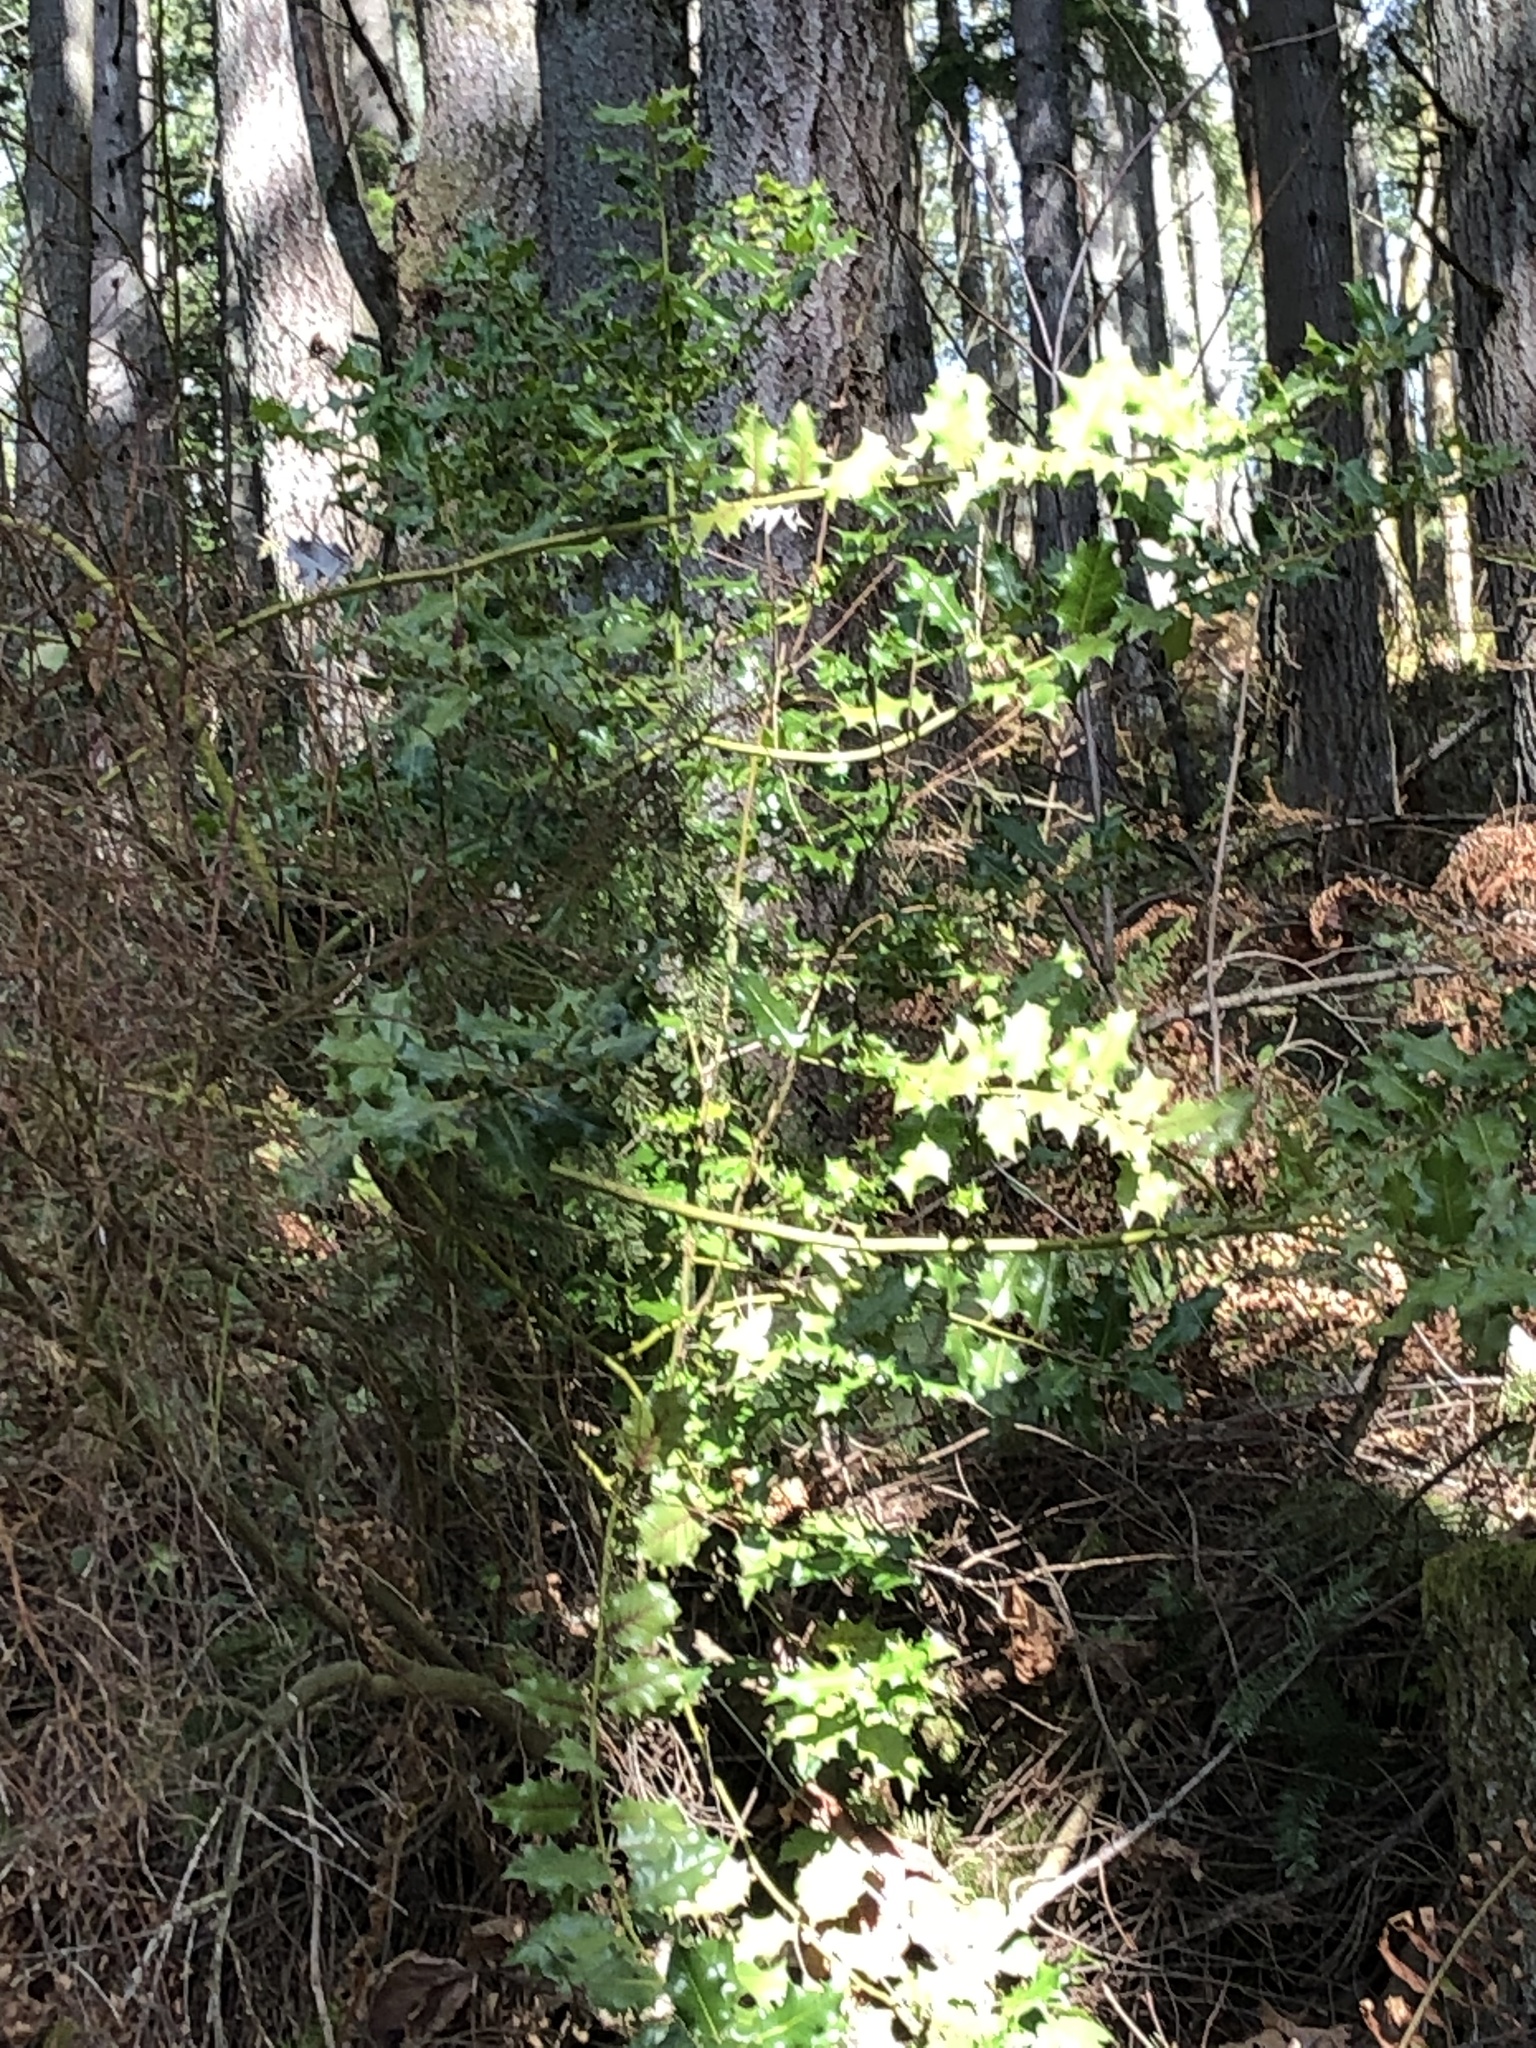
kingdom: Plantae
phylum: Tracheophyta
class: Magnoliopsida
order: Aquifoliales
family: Aquifoliaceae
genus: Ilex
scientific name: Ilex aquifolium
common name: English holly
